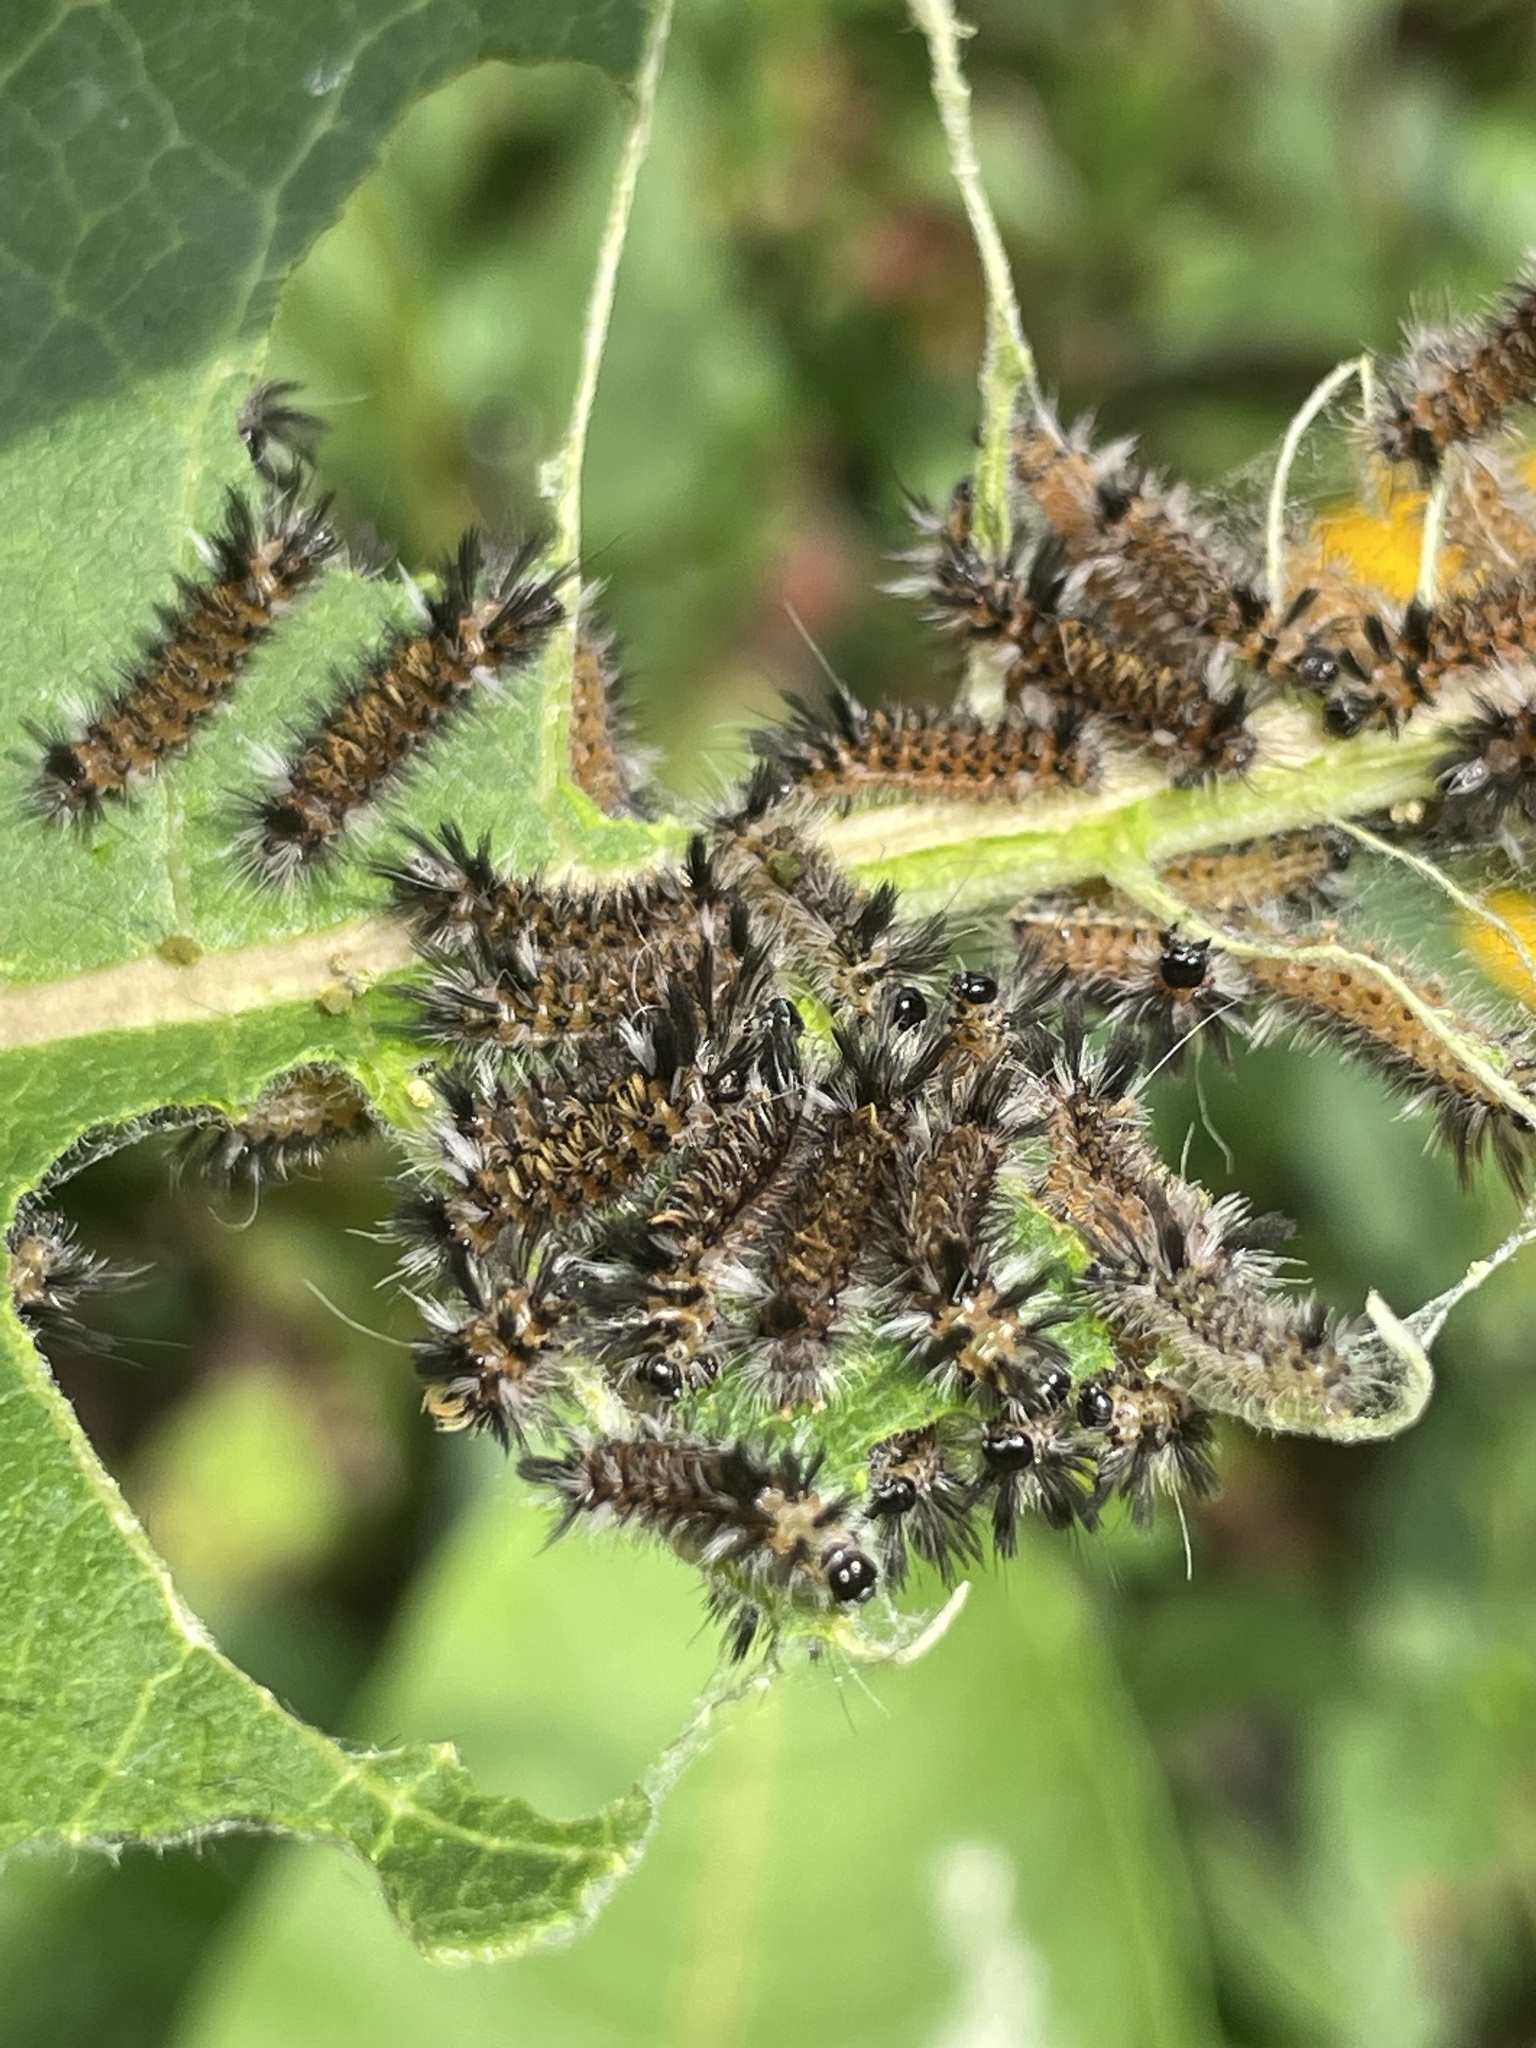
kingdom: Animalia
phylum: Arthropoda
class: Insecta
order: Lepidoptera
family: Erebidae
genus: Euchaetes
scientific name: Euchaetes egle
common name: Milkweed tussock moth
